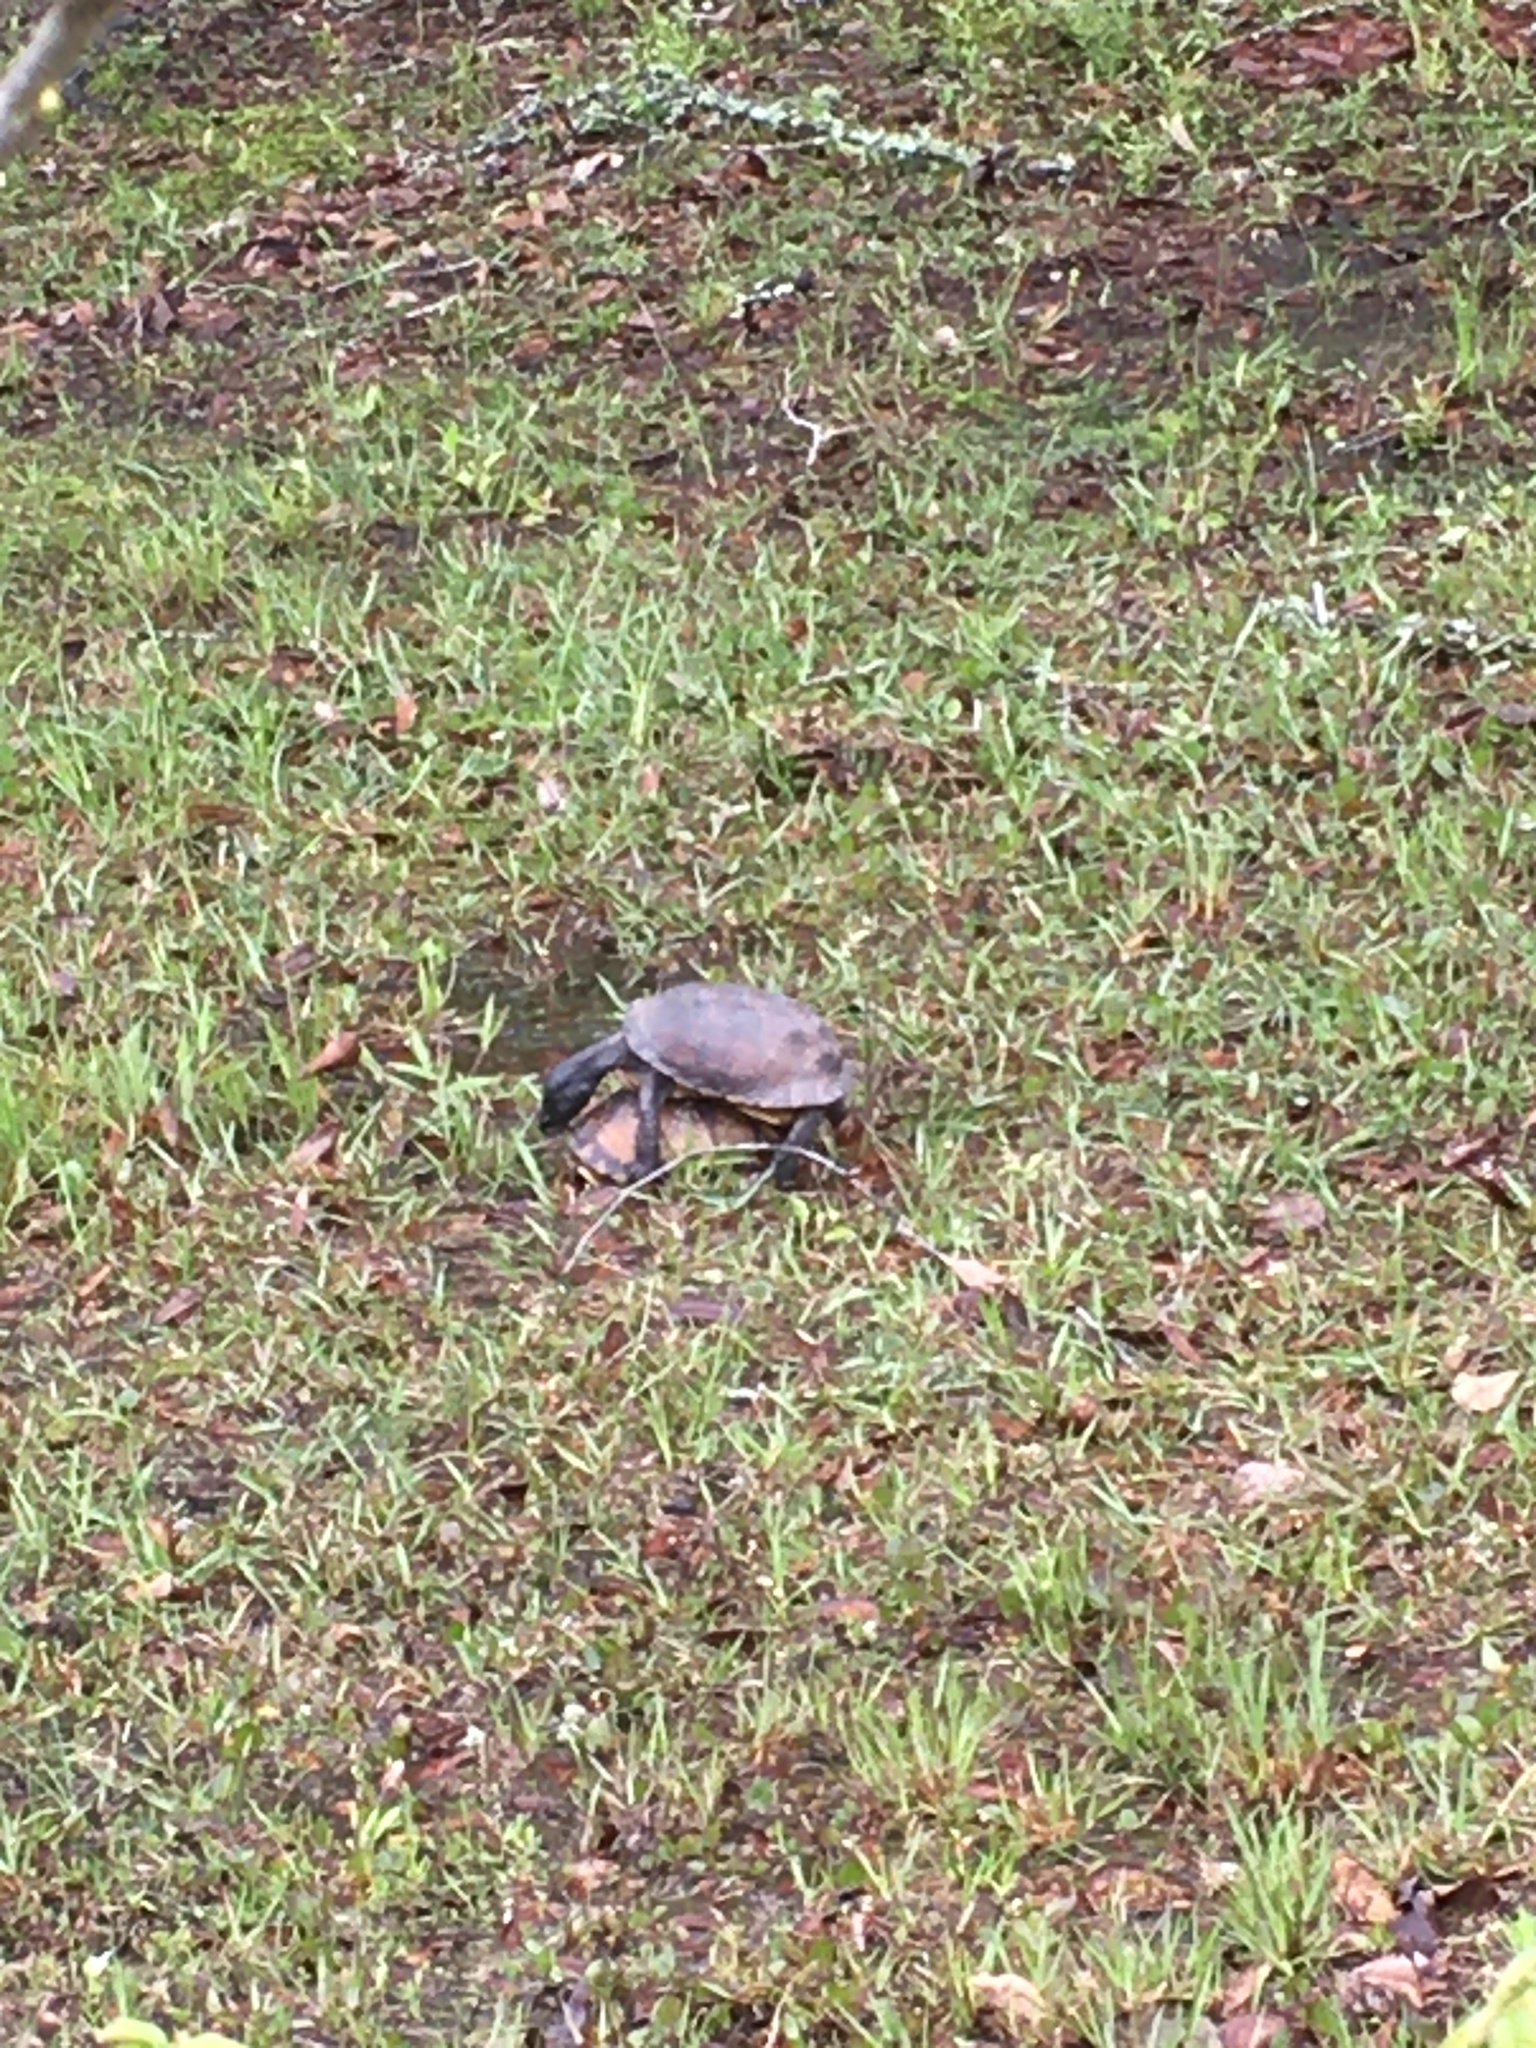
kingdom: Animalia
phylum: Chordata
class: Testudines
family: Emydidae
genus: Terrapene
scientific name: Terrapene carolina
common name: Common box turtle
